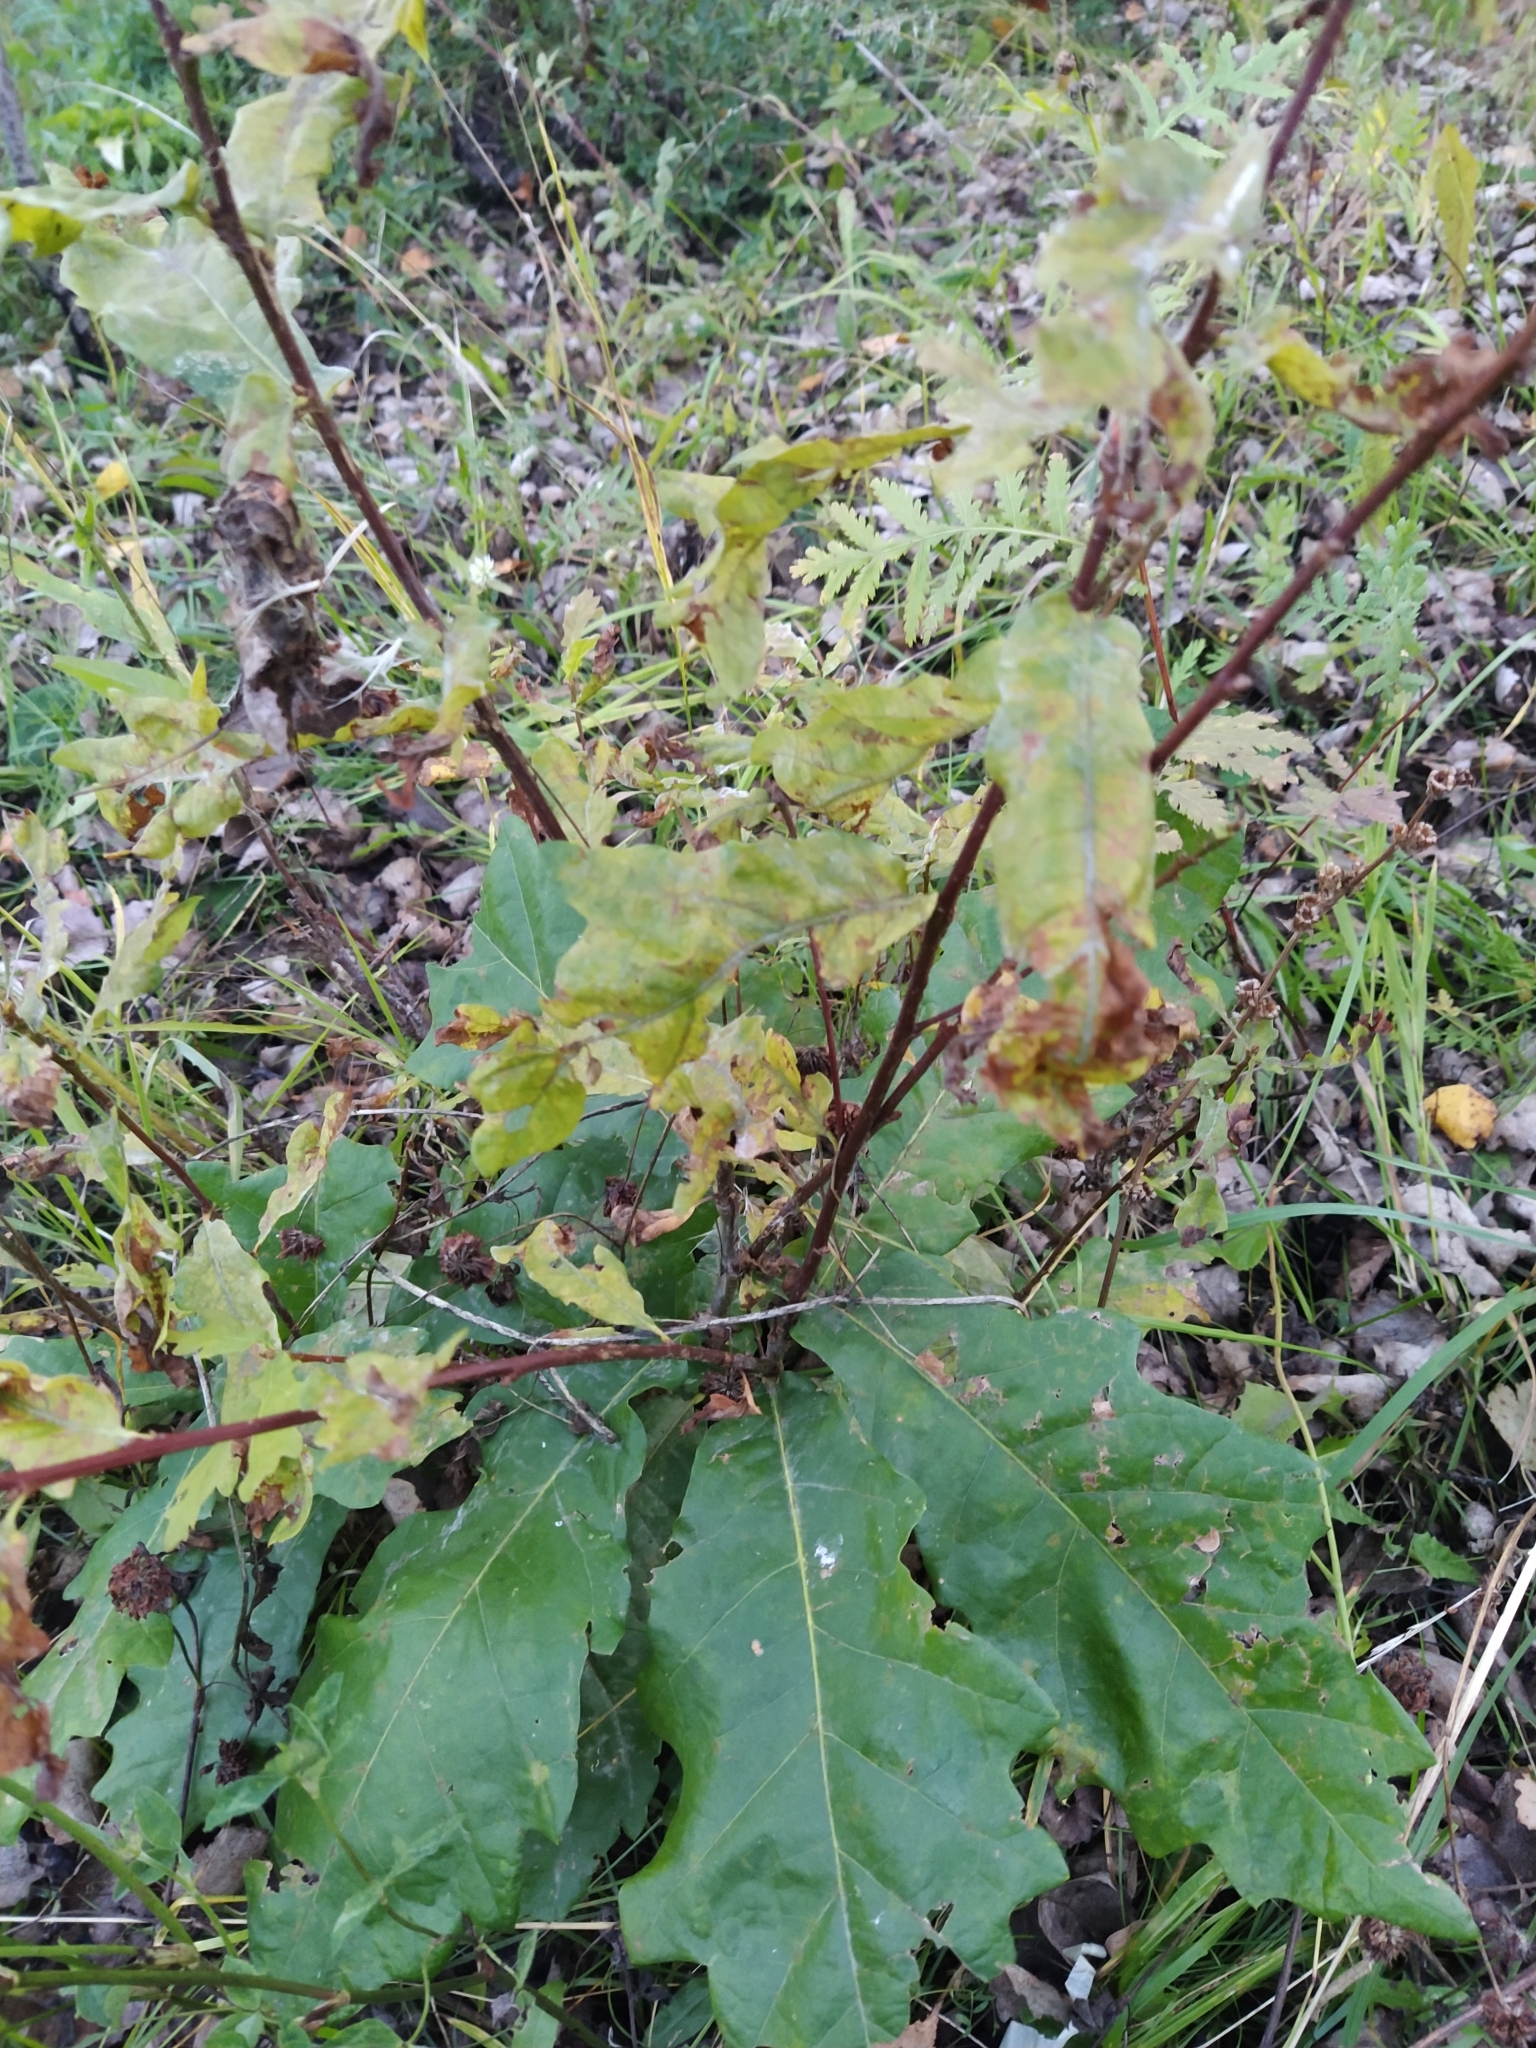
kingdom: Plantae
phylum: Tracheophyta
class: Magnoliopsida
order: Fagales
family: Fagaceae
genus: Quercus
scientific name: Quercus robur
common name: Pedunculate oak
